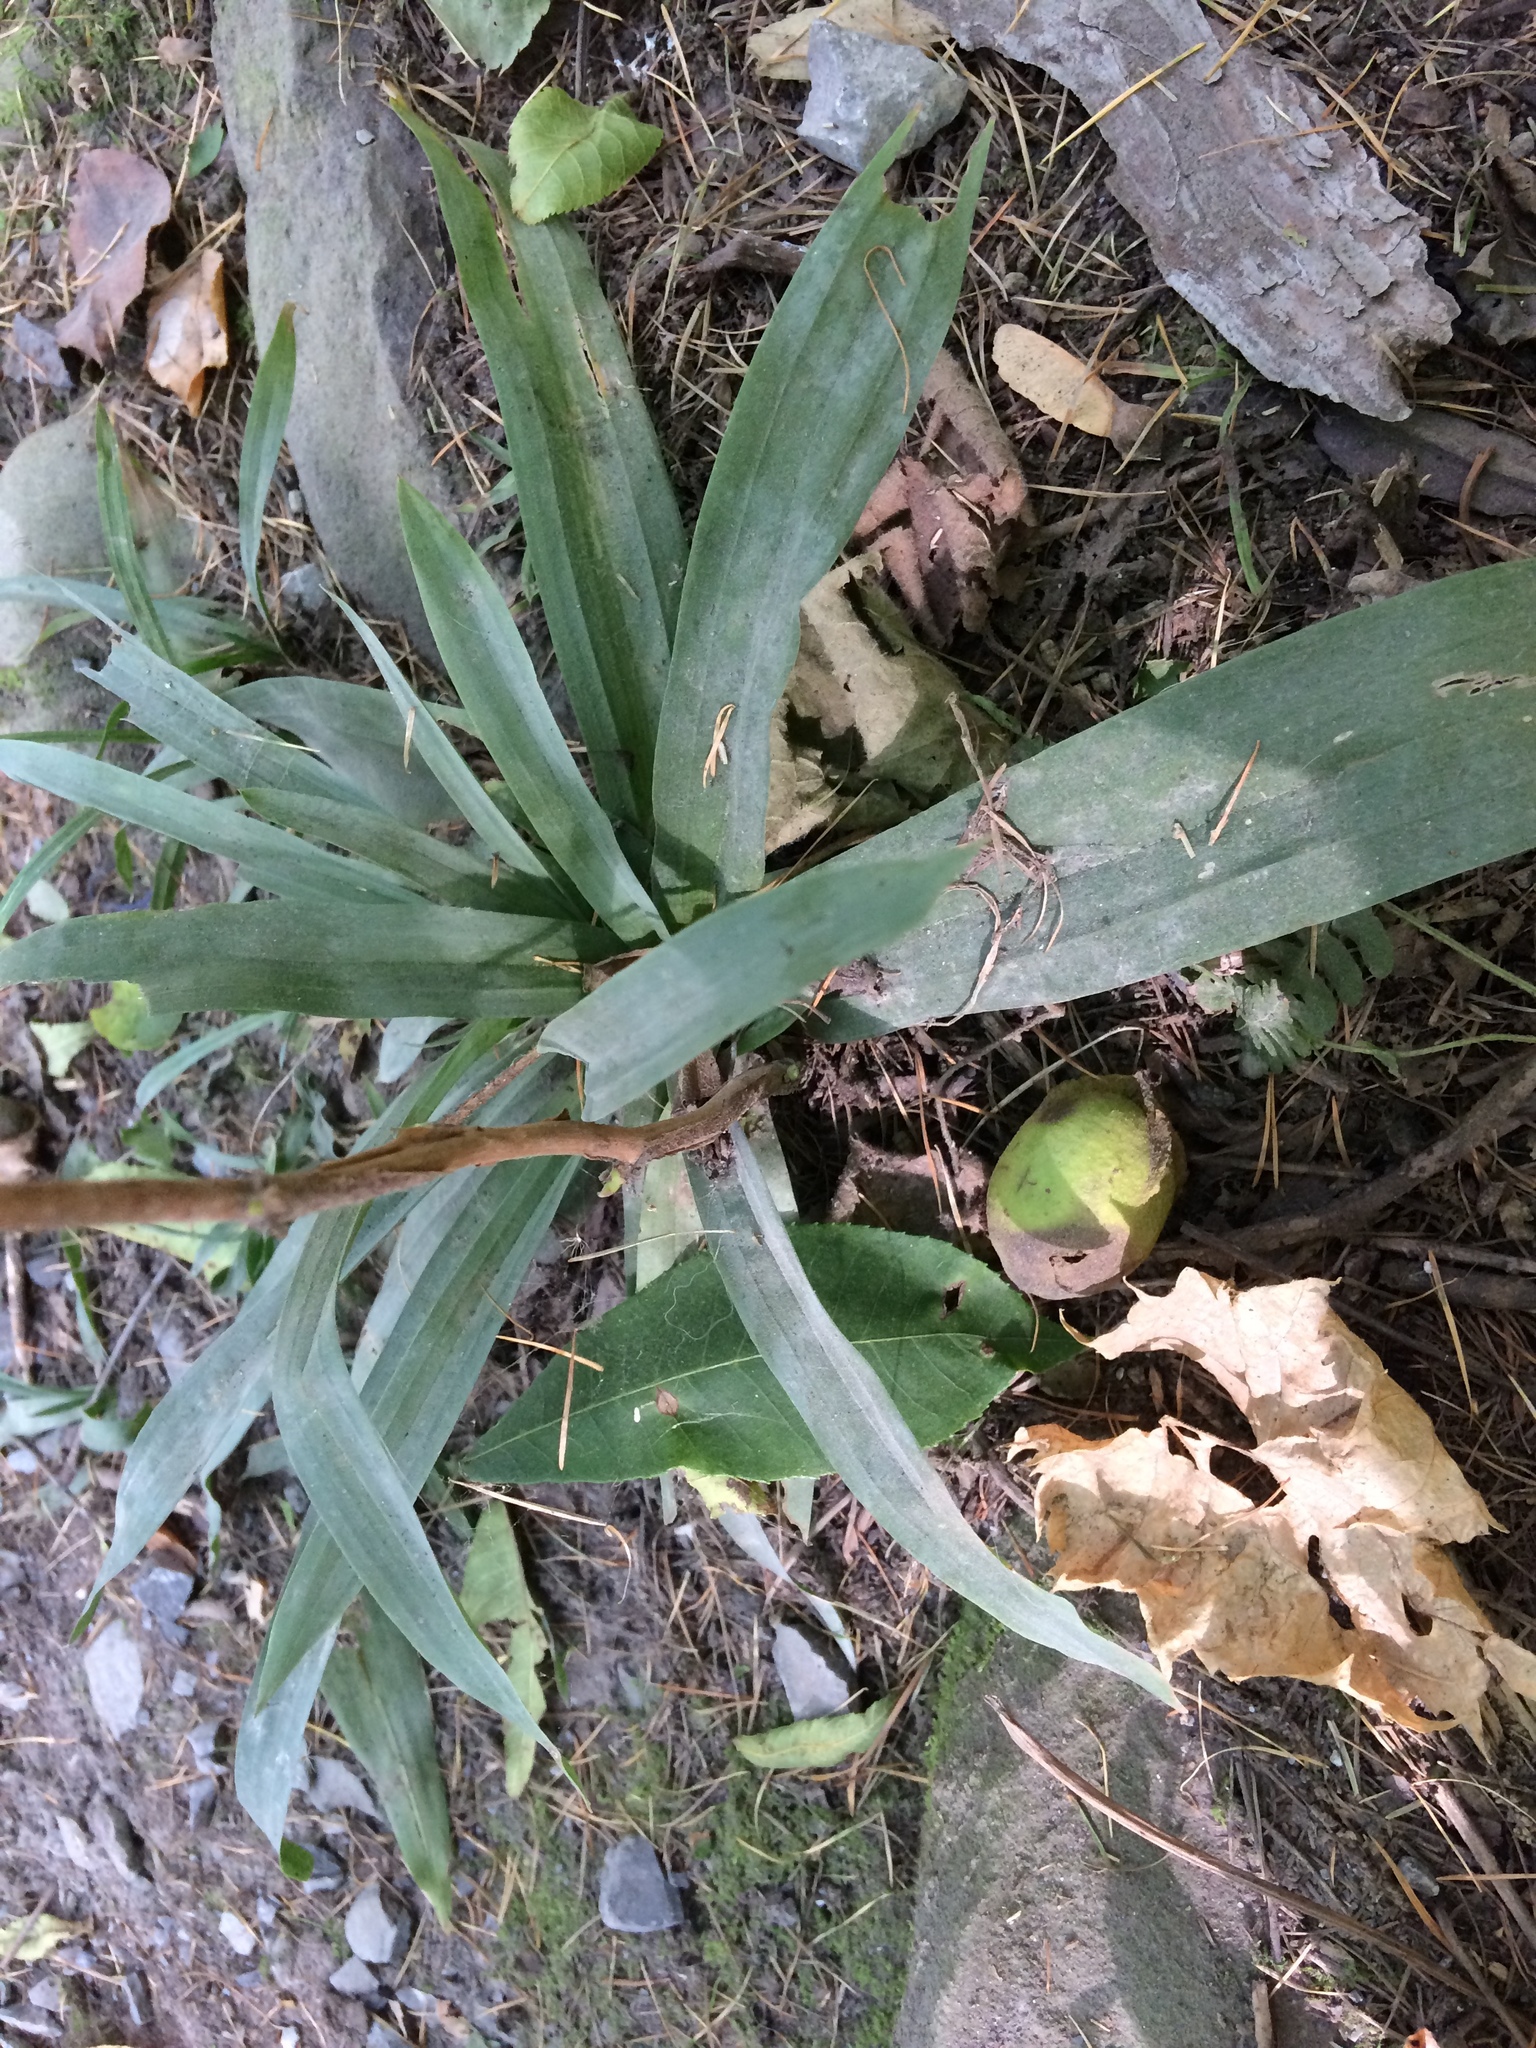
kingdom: Plantae
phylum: Tracheophyta
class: Liliopsida
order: Poales
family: Cyperaceae
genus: Carex
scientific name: Carex platyphylla
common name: Broad-leaved sedge
